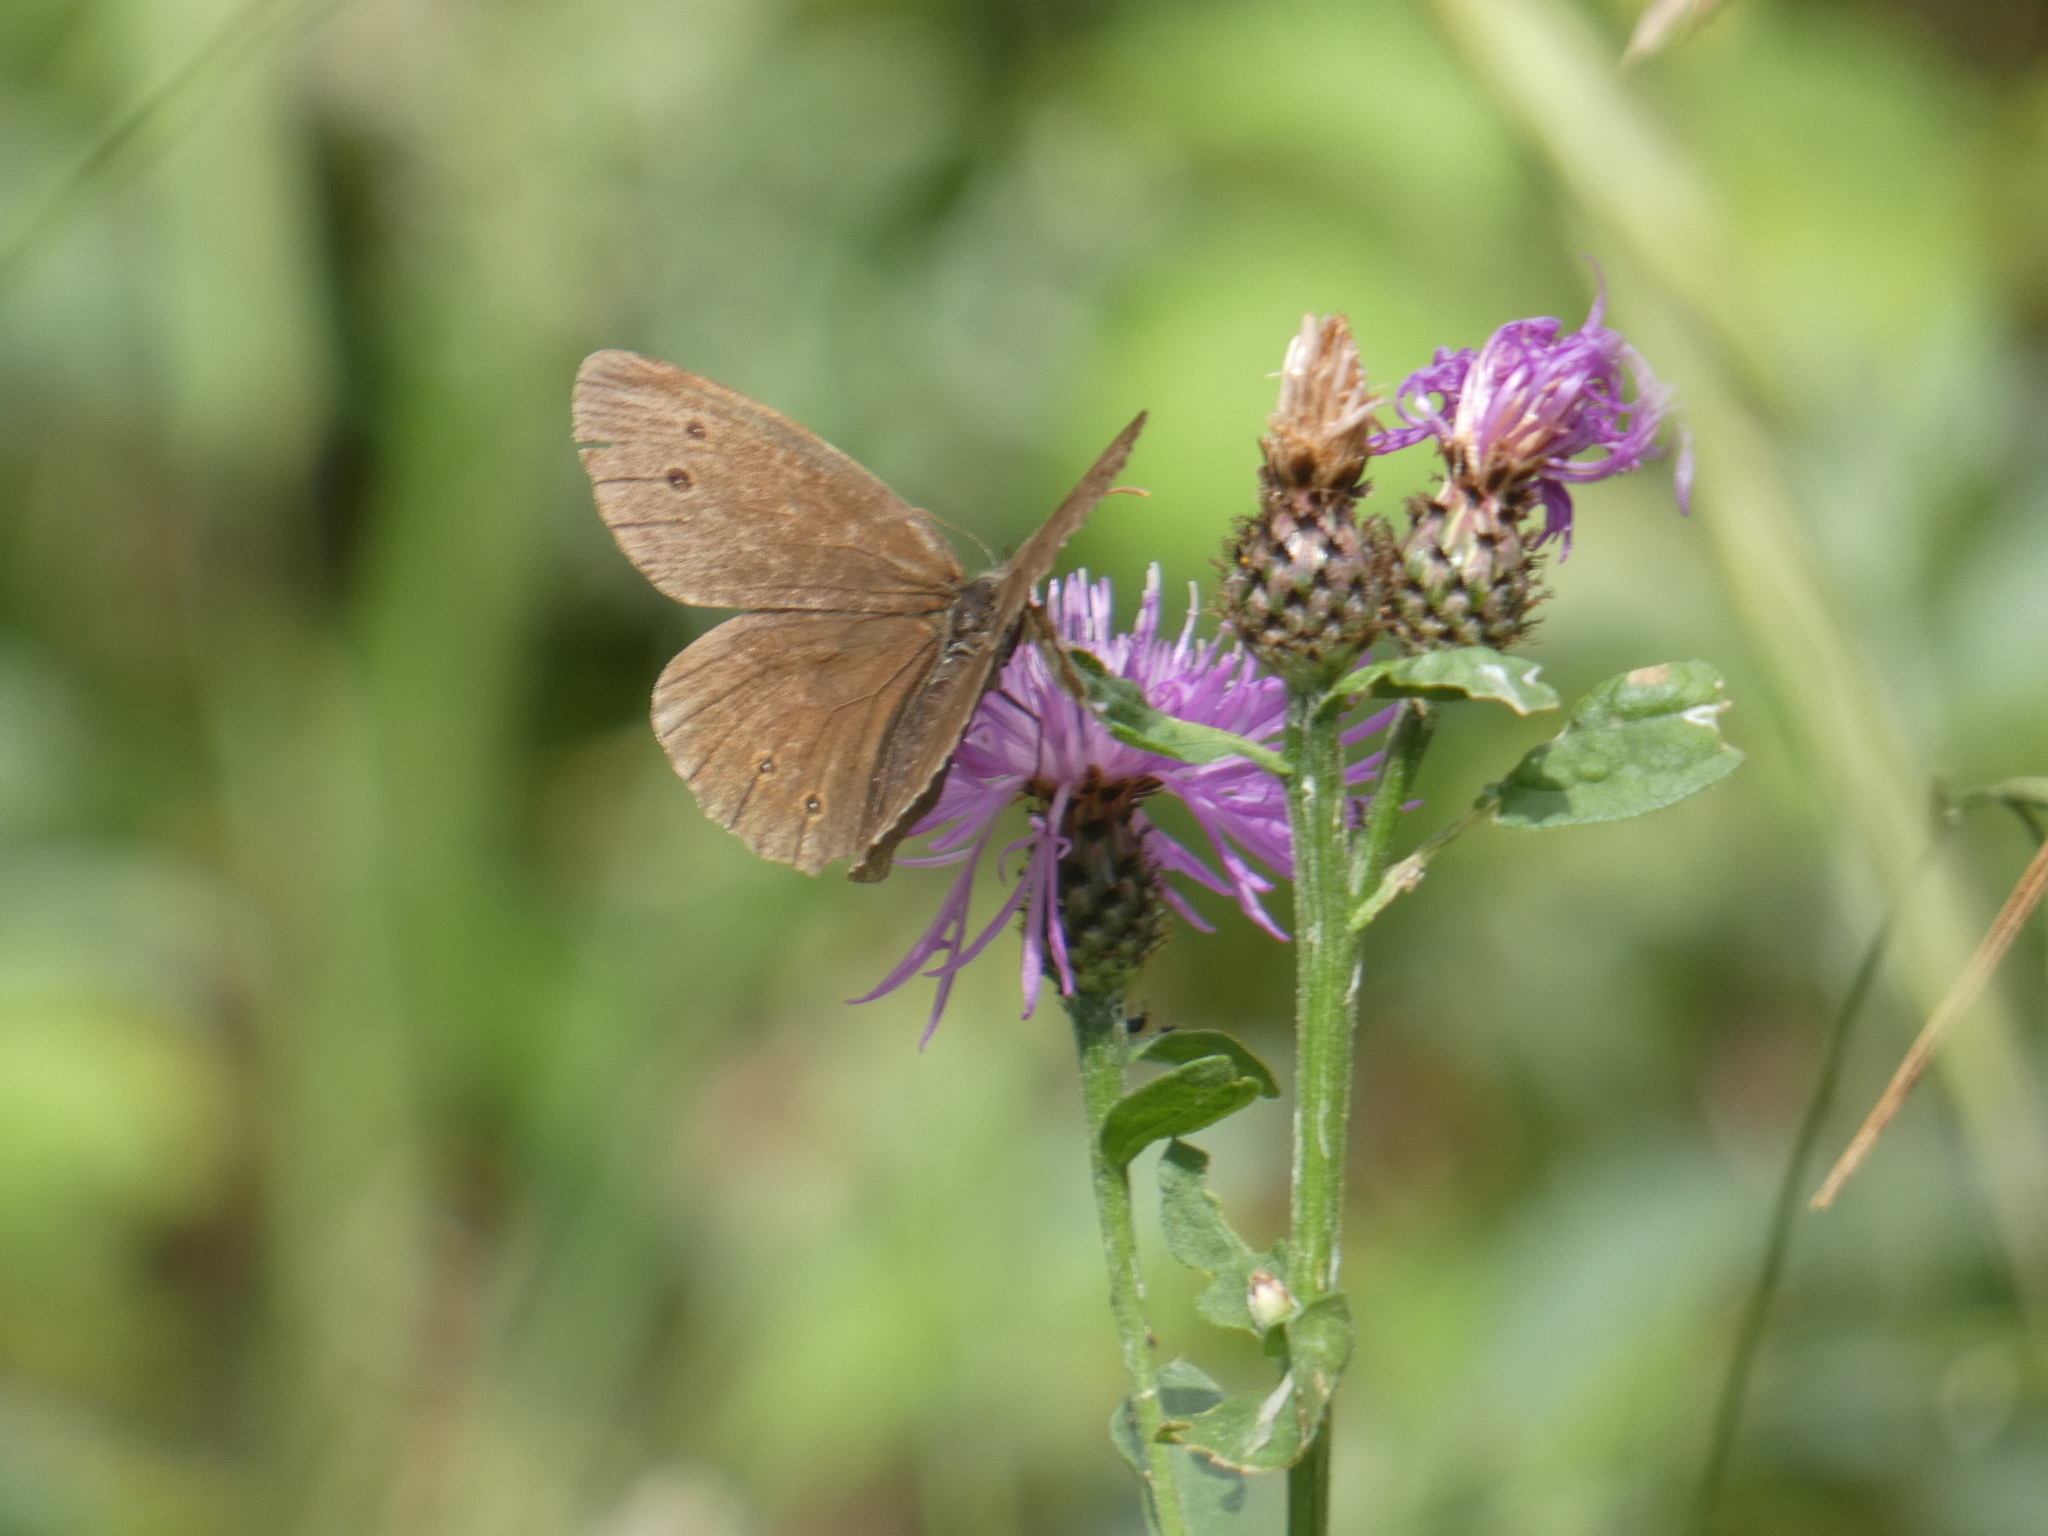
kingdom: Animalia
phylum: Arthropoda
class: Insecta
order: Lepidoptera
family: Nymphalidae
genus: Aphantopus
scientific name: Aphantopus hyperantus
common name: Ringlet
